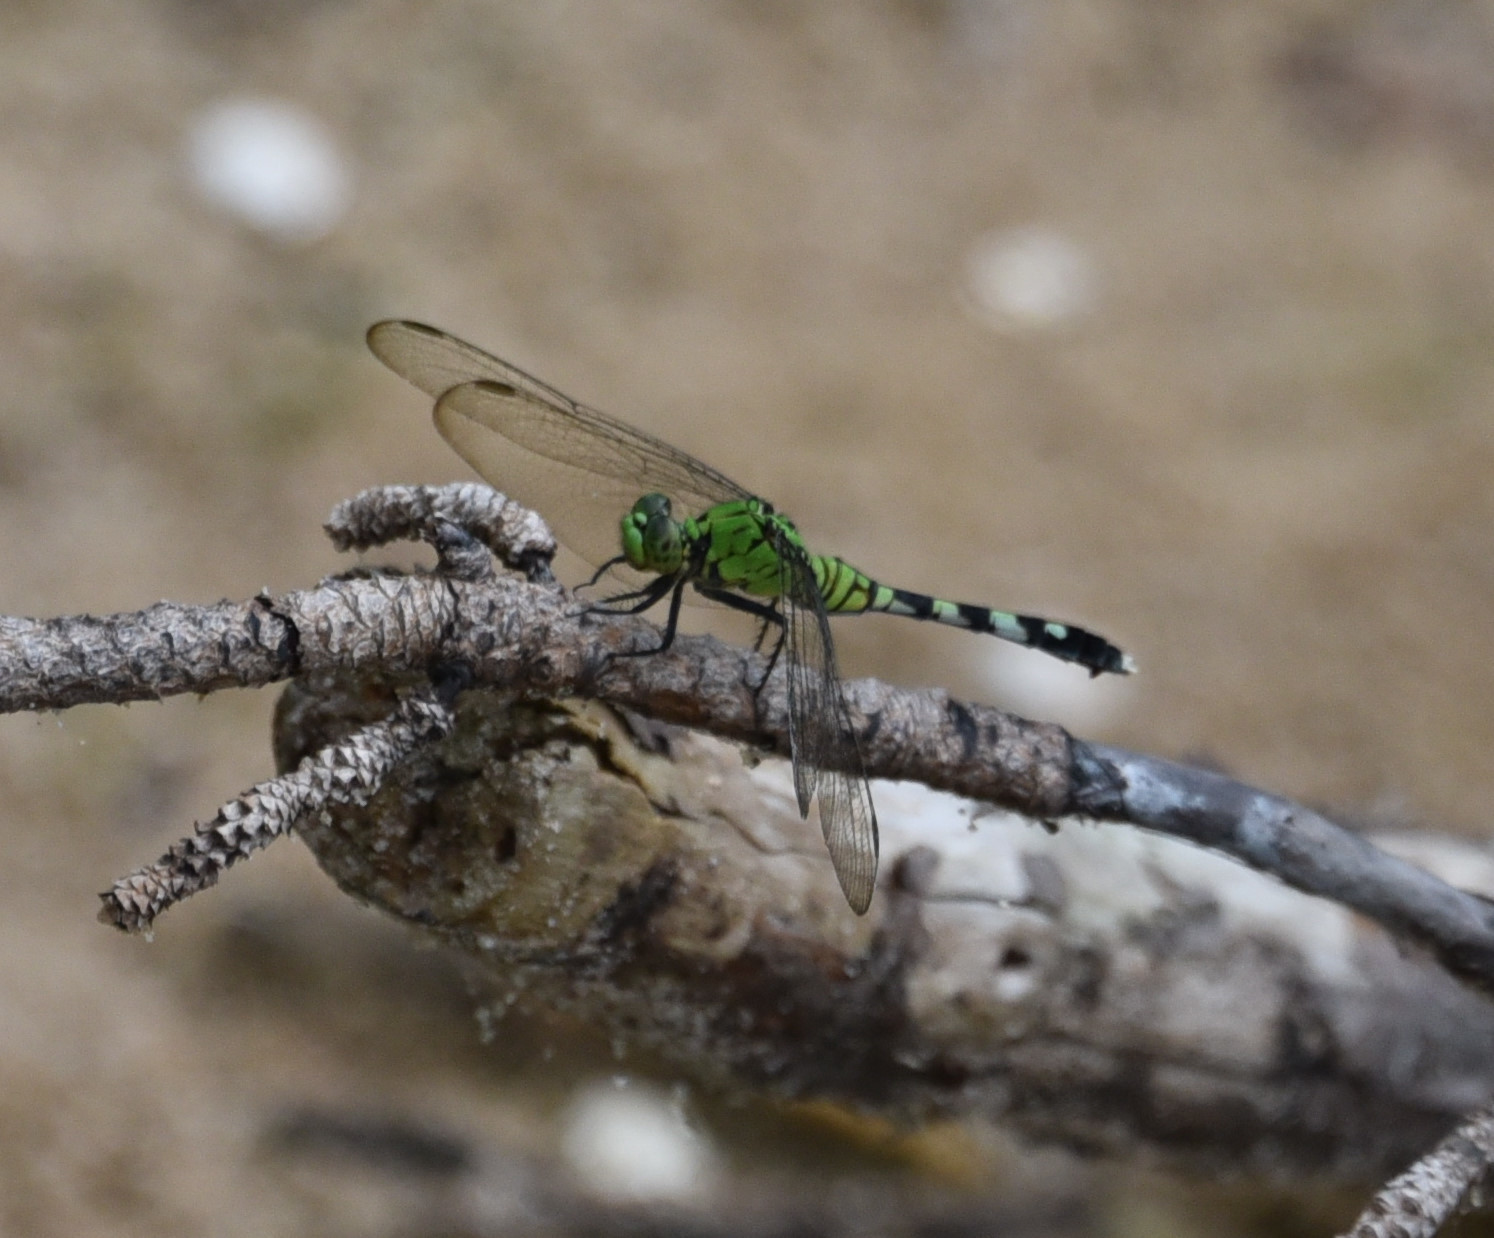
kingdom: Animalia
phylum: Arthropoda
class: Insecta
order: Odonata
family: Libellulidae
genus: Erythemis
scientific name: Erythemis simplicicollis
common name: Eastern pondhawk
